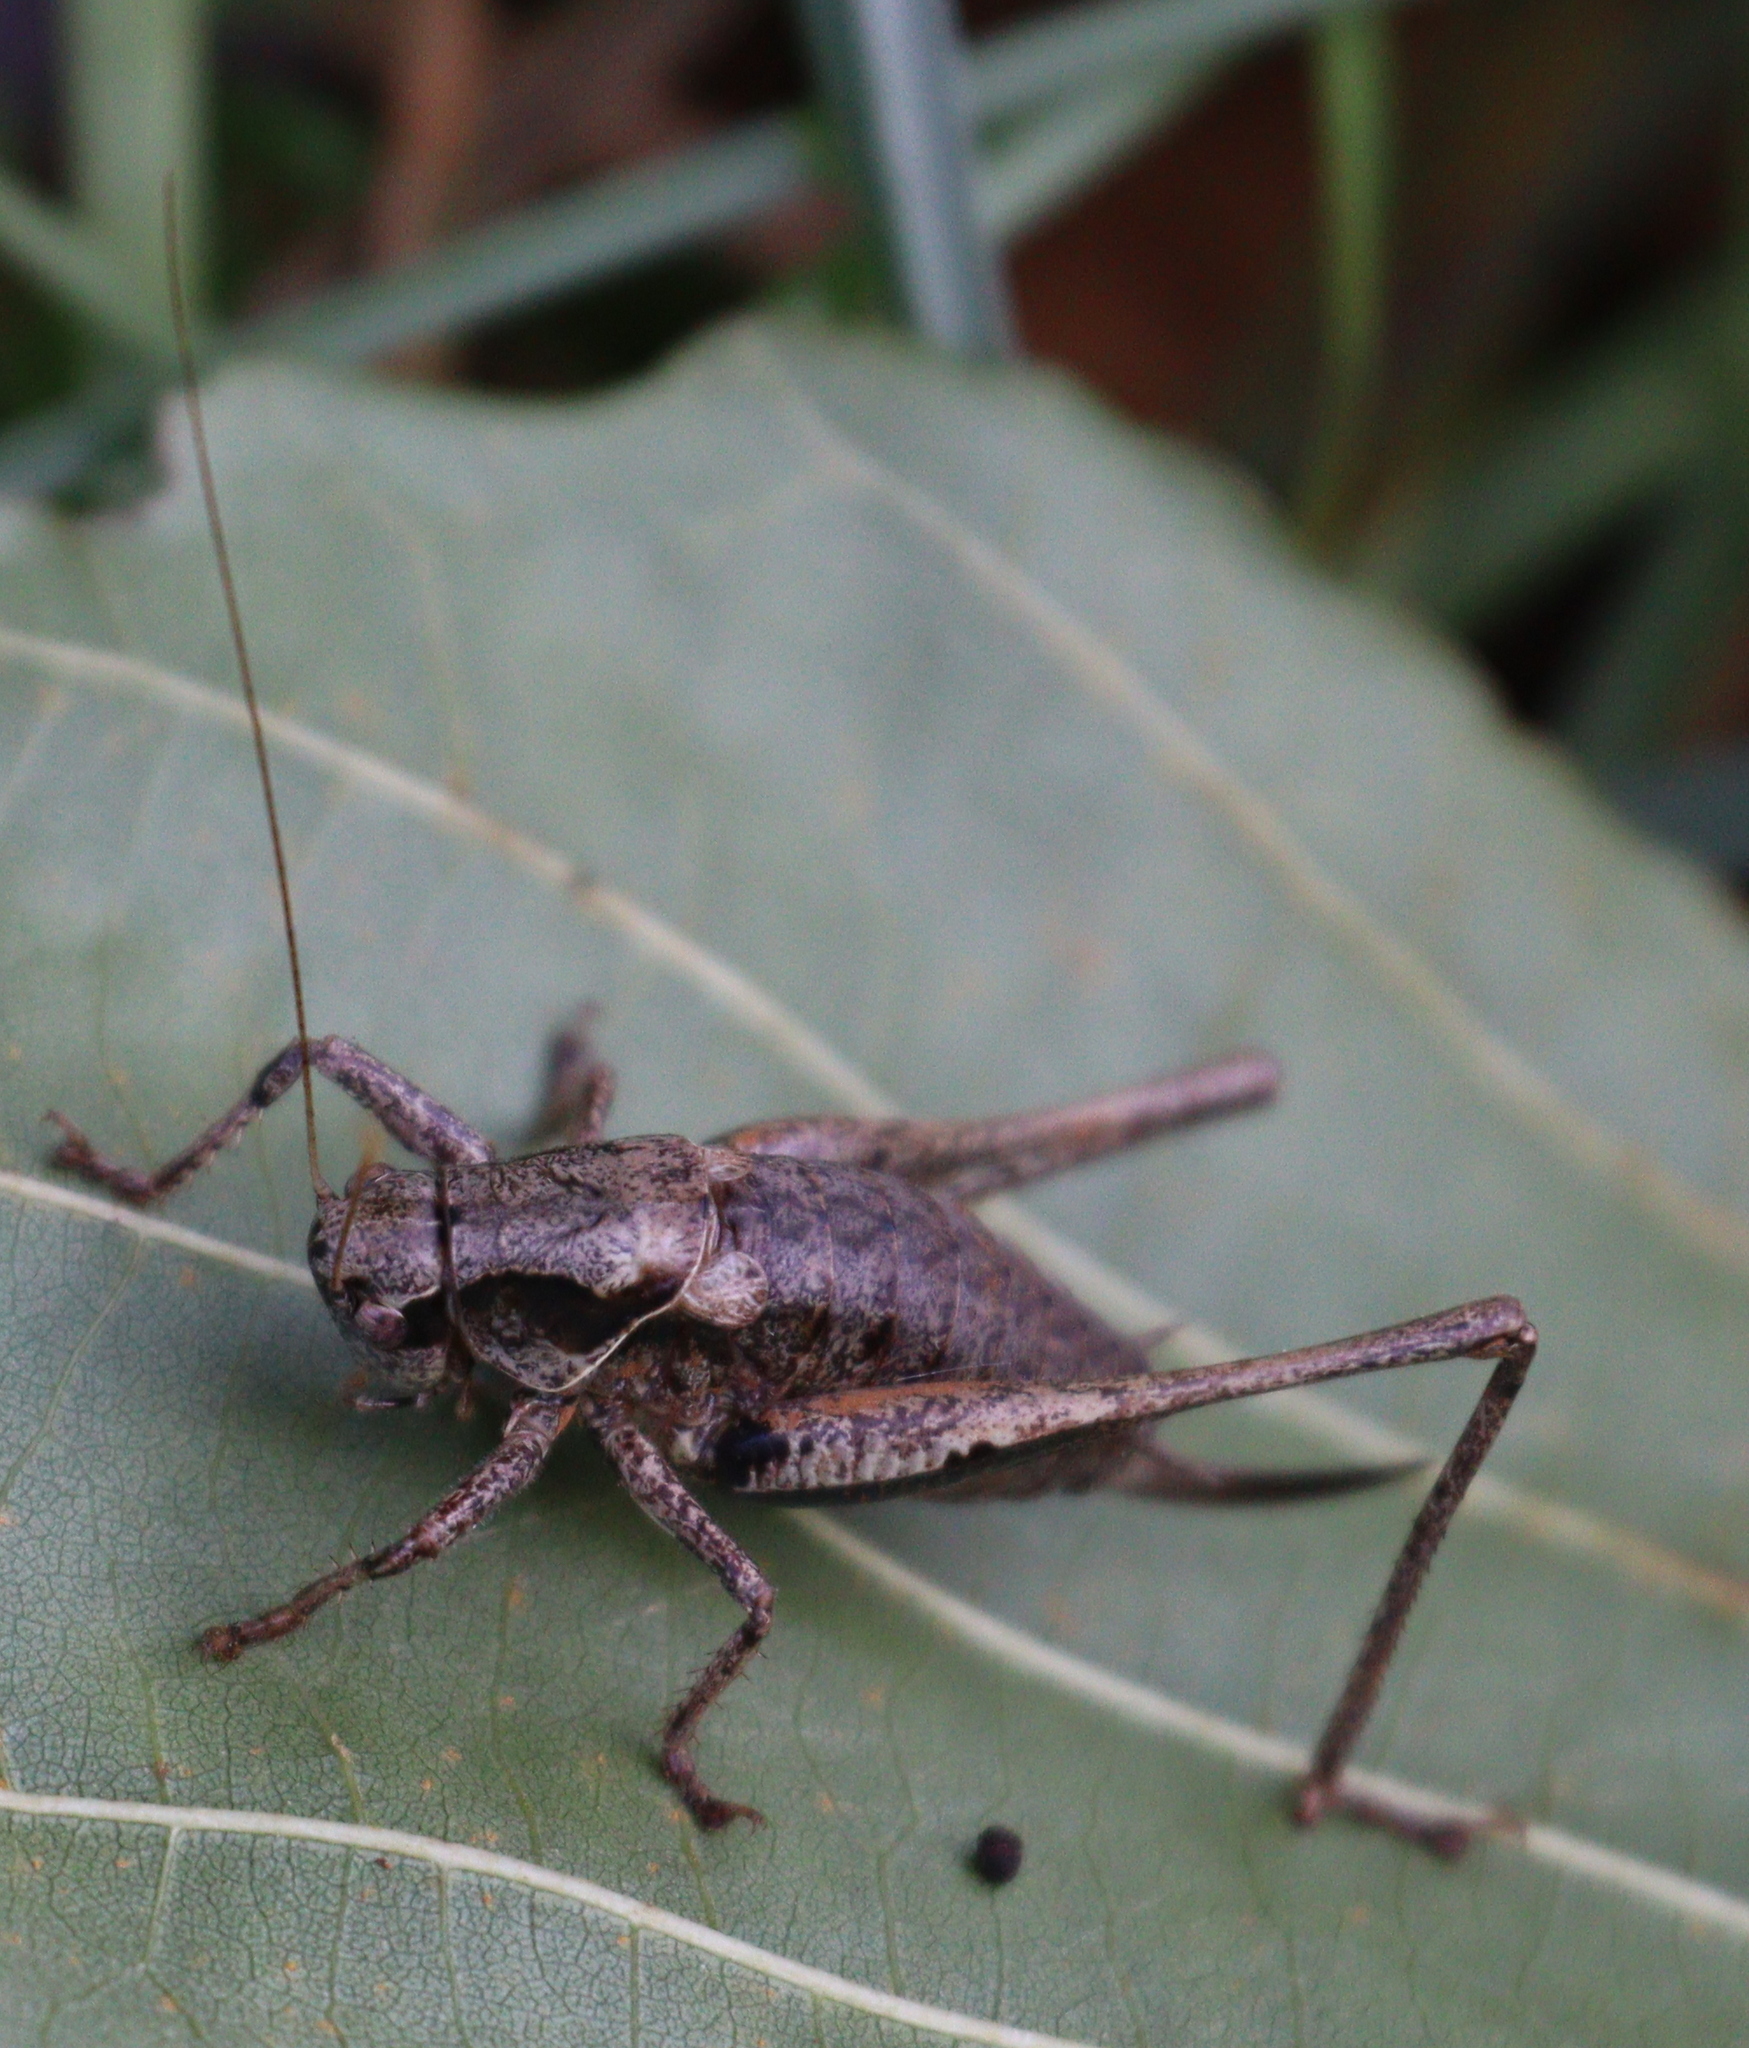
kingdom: Animalia
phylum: Arthropoda
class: Insecta
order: Orthoptera
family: Tettigoniidae
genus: Pholidoptera
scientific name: Pholidoptera griseoaptera
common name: Dark bush-cricket
